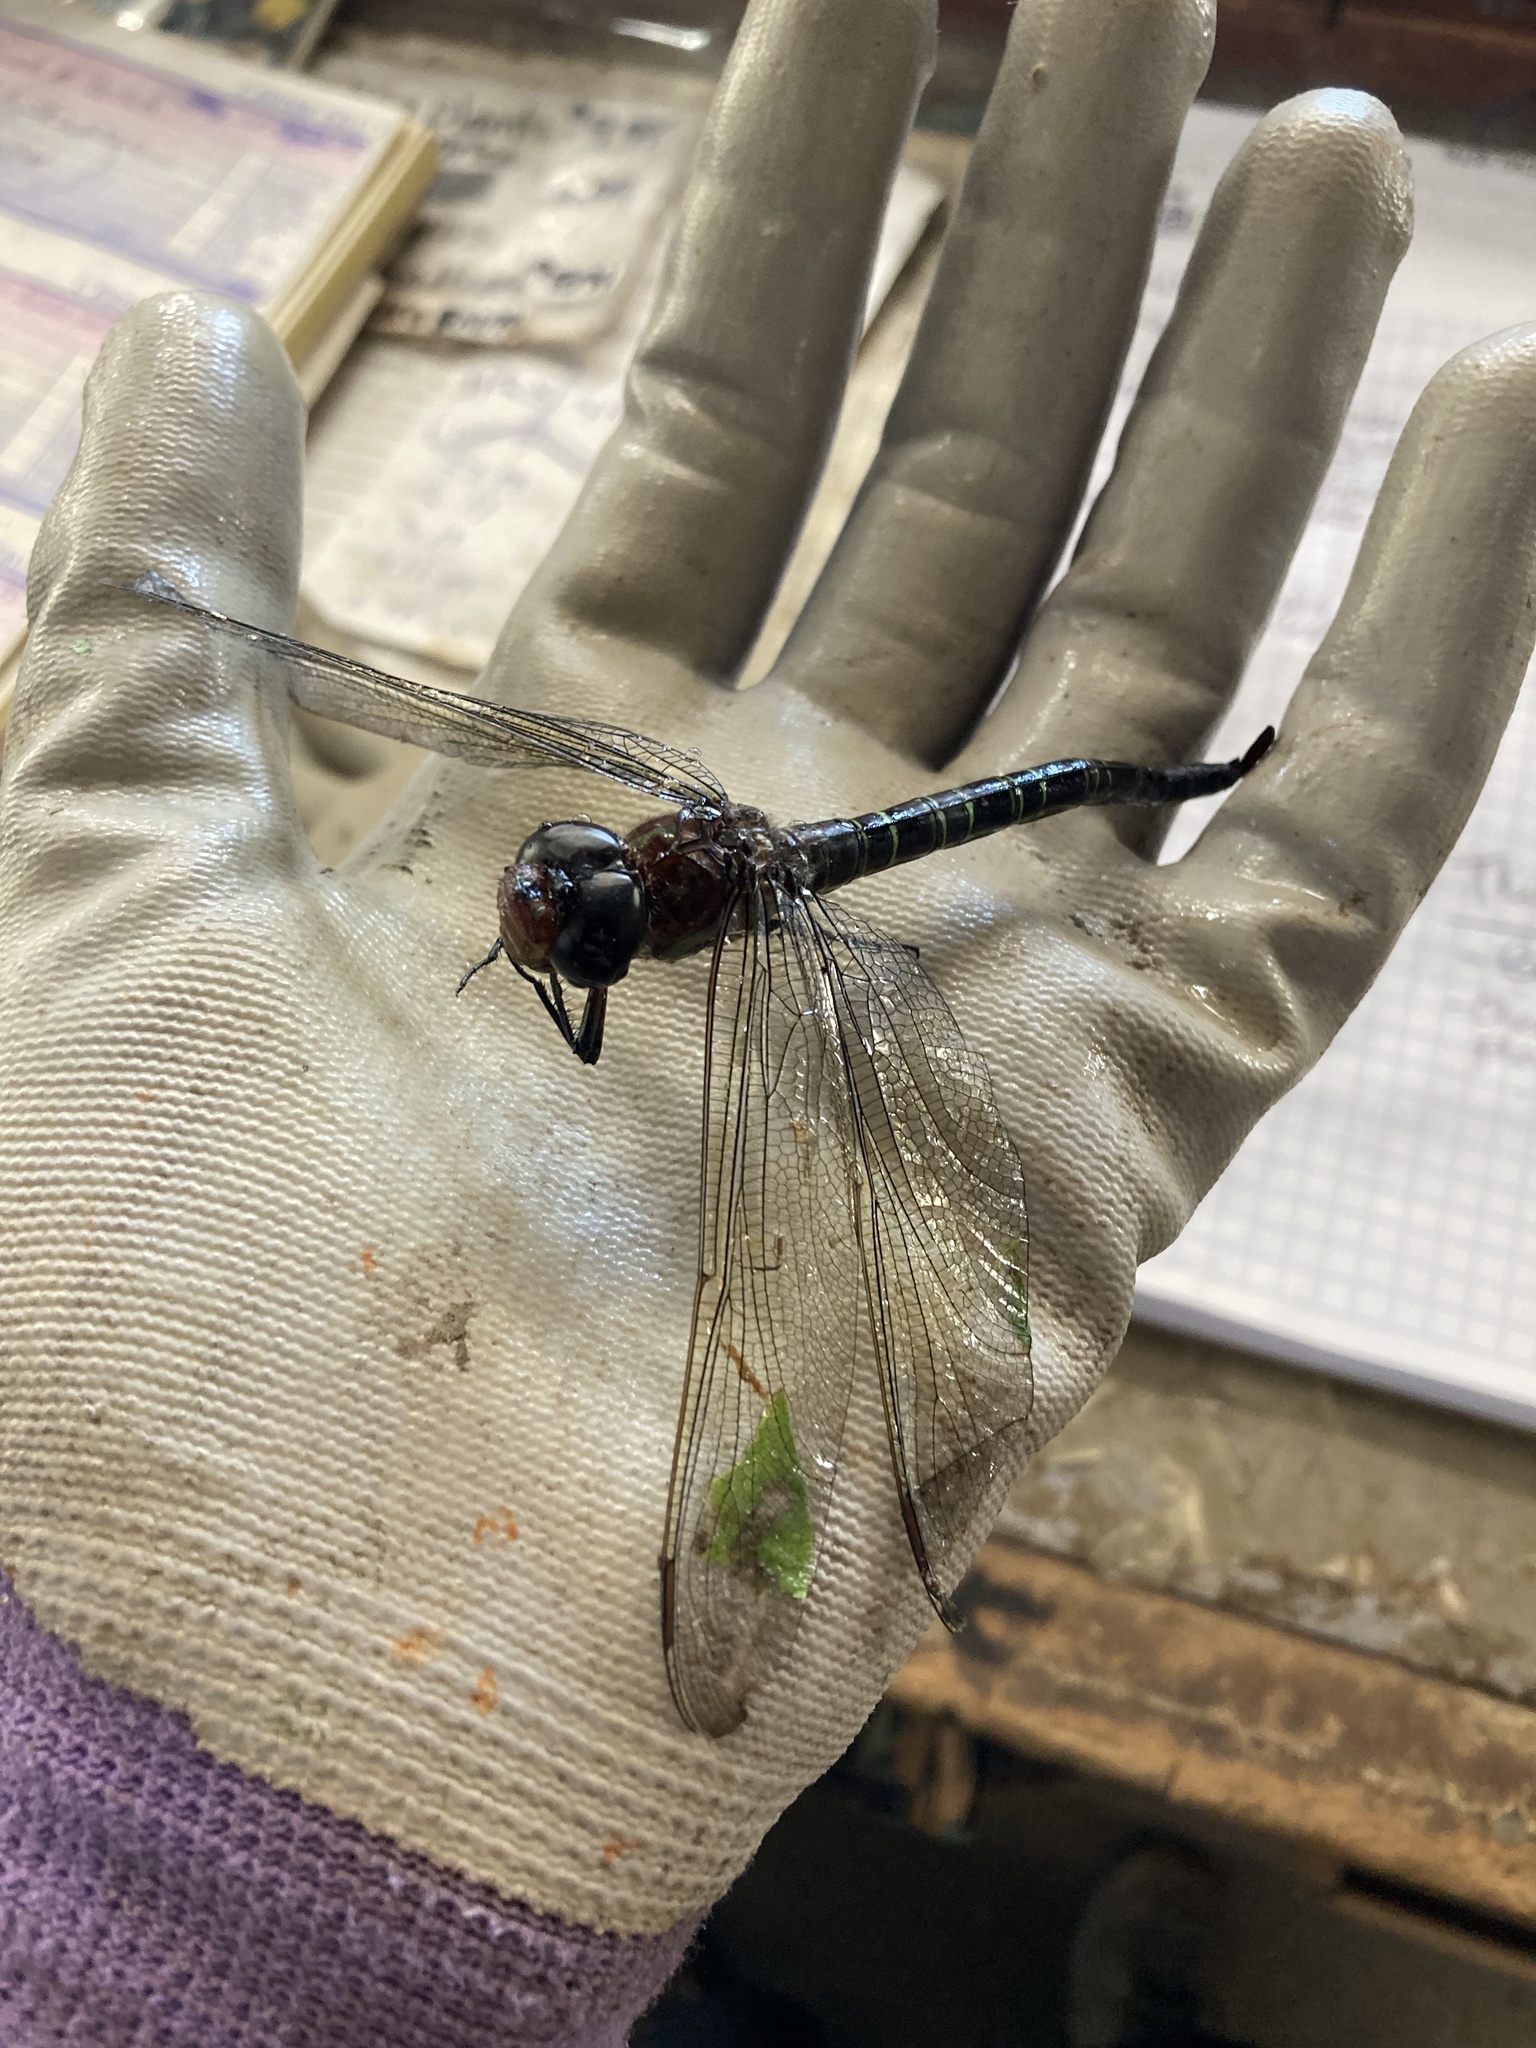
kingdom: Animalia
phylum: Arthropoda
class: Insecta
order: Odonata
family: Aeshnidae
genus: Epiaeschna
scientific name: Epiaeschna heros
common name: Swamp darner
